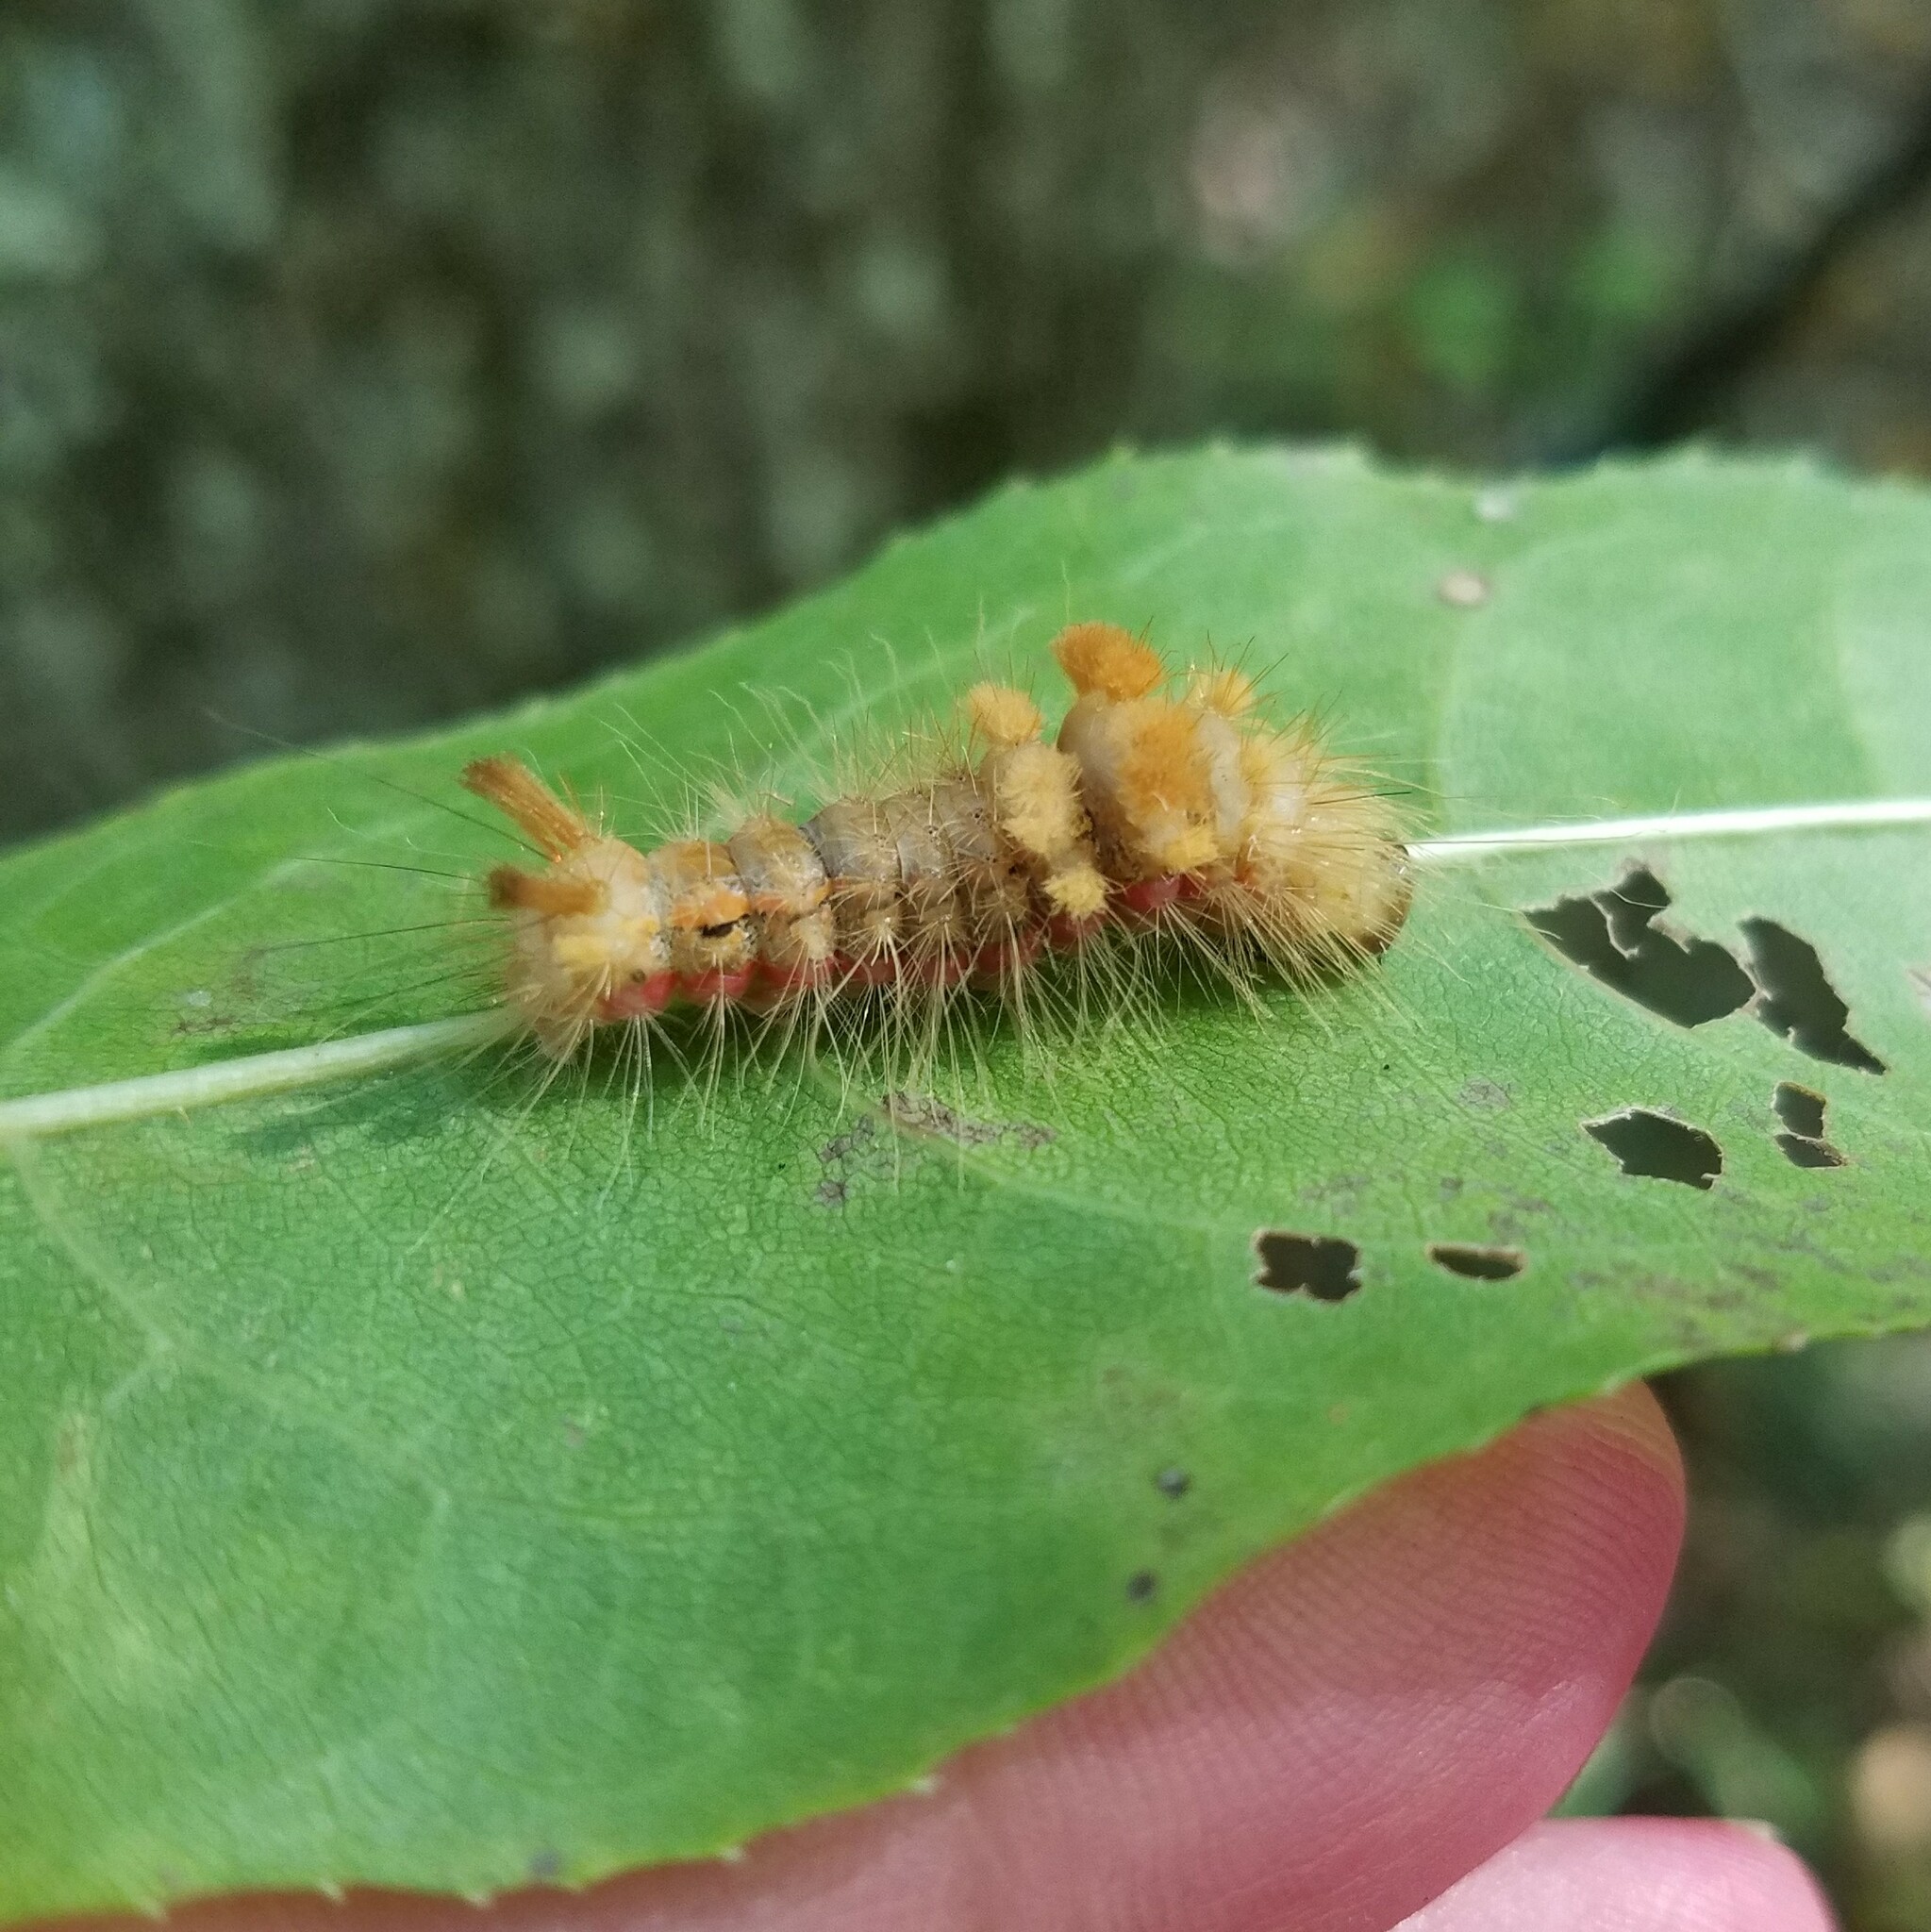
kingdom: Animalia
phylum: Arthropoda
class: Insecta
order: Lepidoptera
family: Noctuidae
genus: Acronicta
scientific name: Acronicta impleta
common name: Powdered dagger
